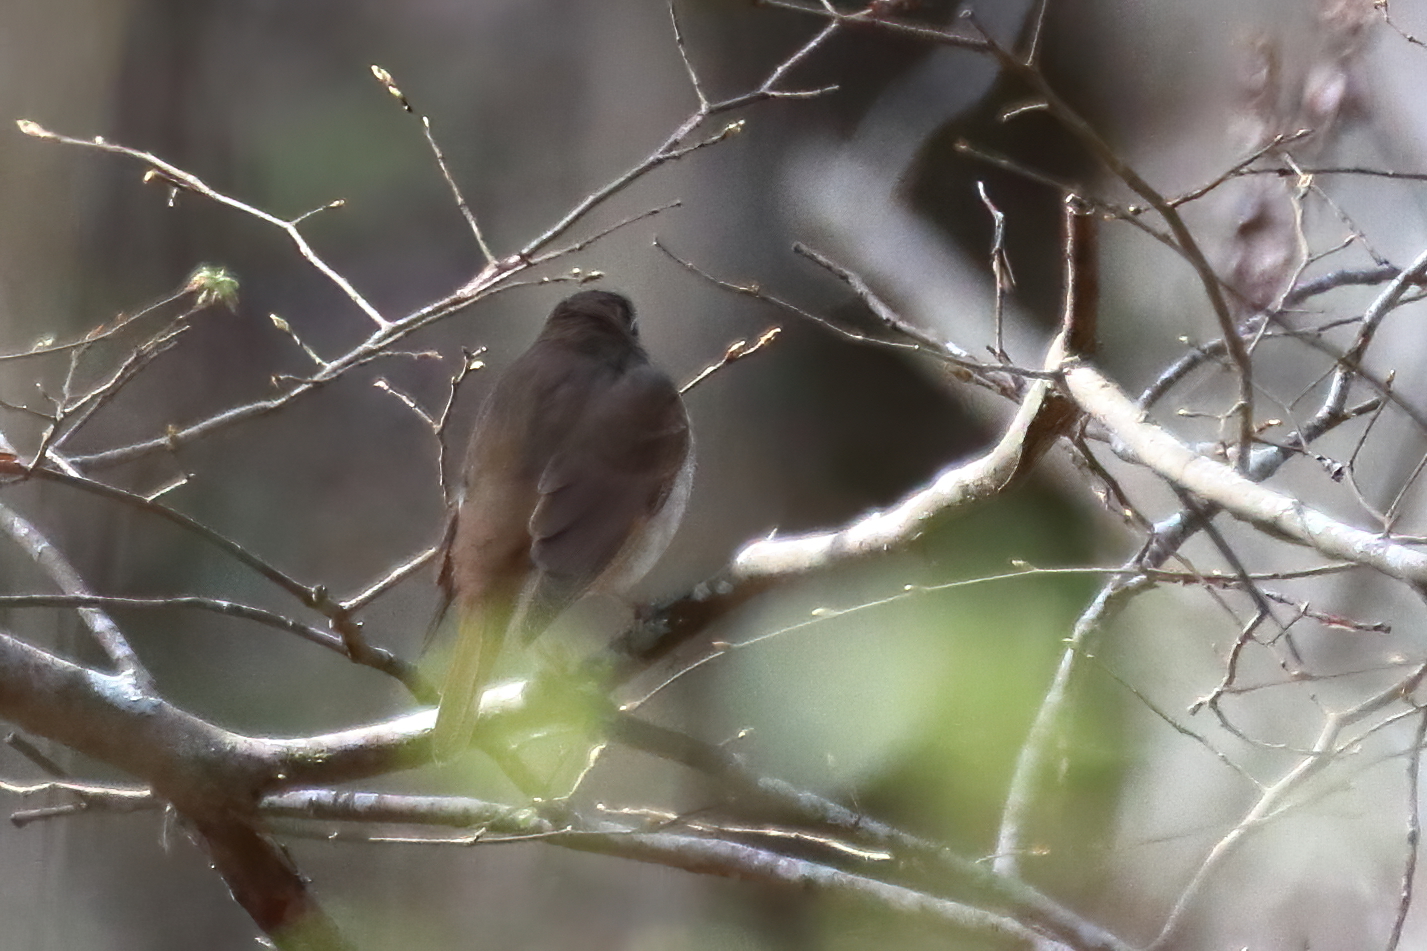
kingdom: Animalia
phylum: Chordata
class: Aves
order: Passeriformes
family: Turdidae
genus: Catharus
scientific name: Catharus guttatus
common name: Hermit thrush
